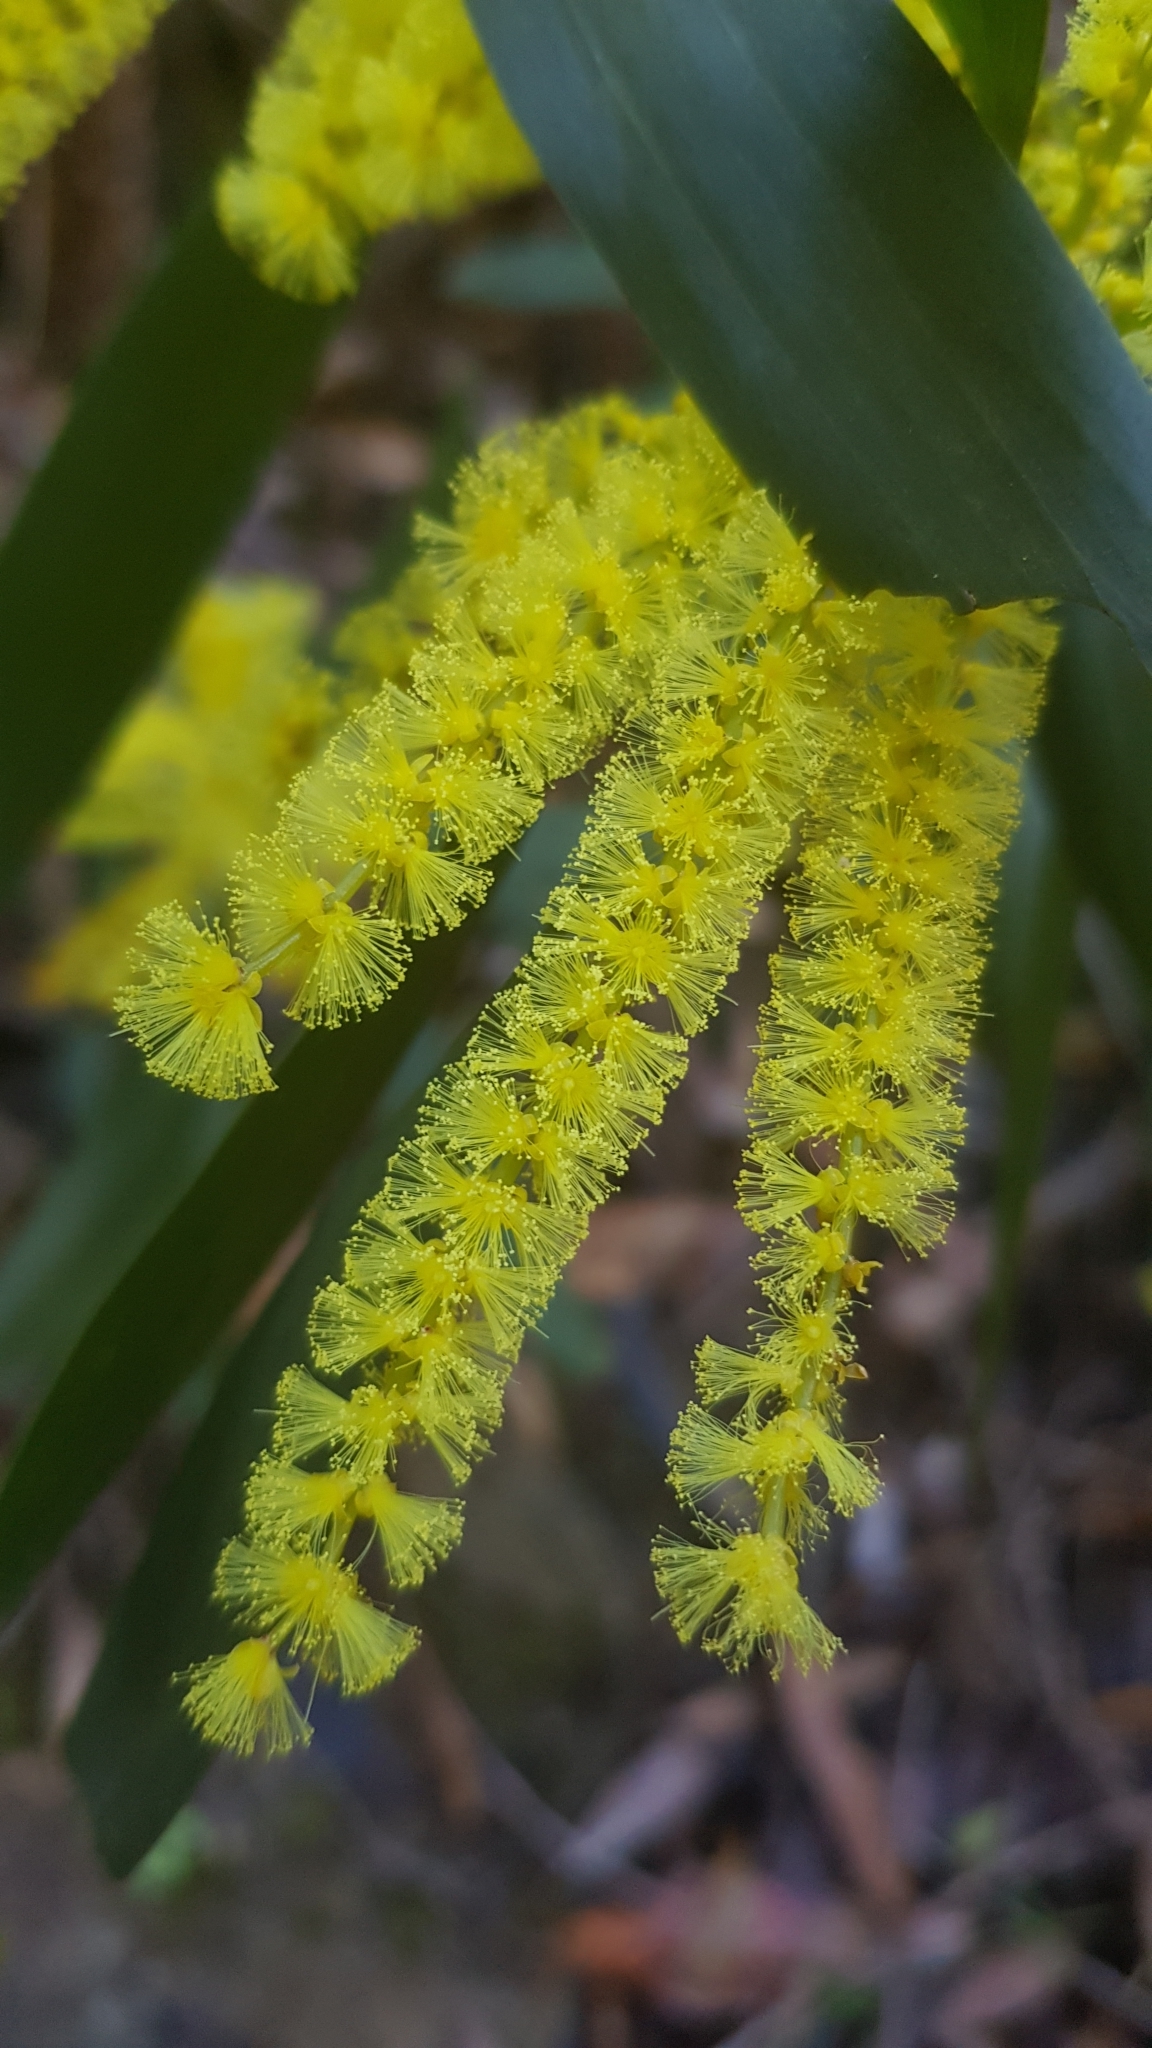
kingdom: Plantae
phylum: Tracheophyta
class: Magnoliopsida
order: Fabales
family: Fabaceae
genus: Acacia
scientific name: Acacia longifolia
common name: Sydney golden wattle
